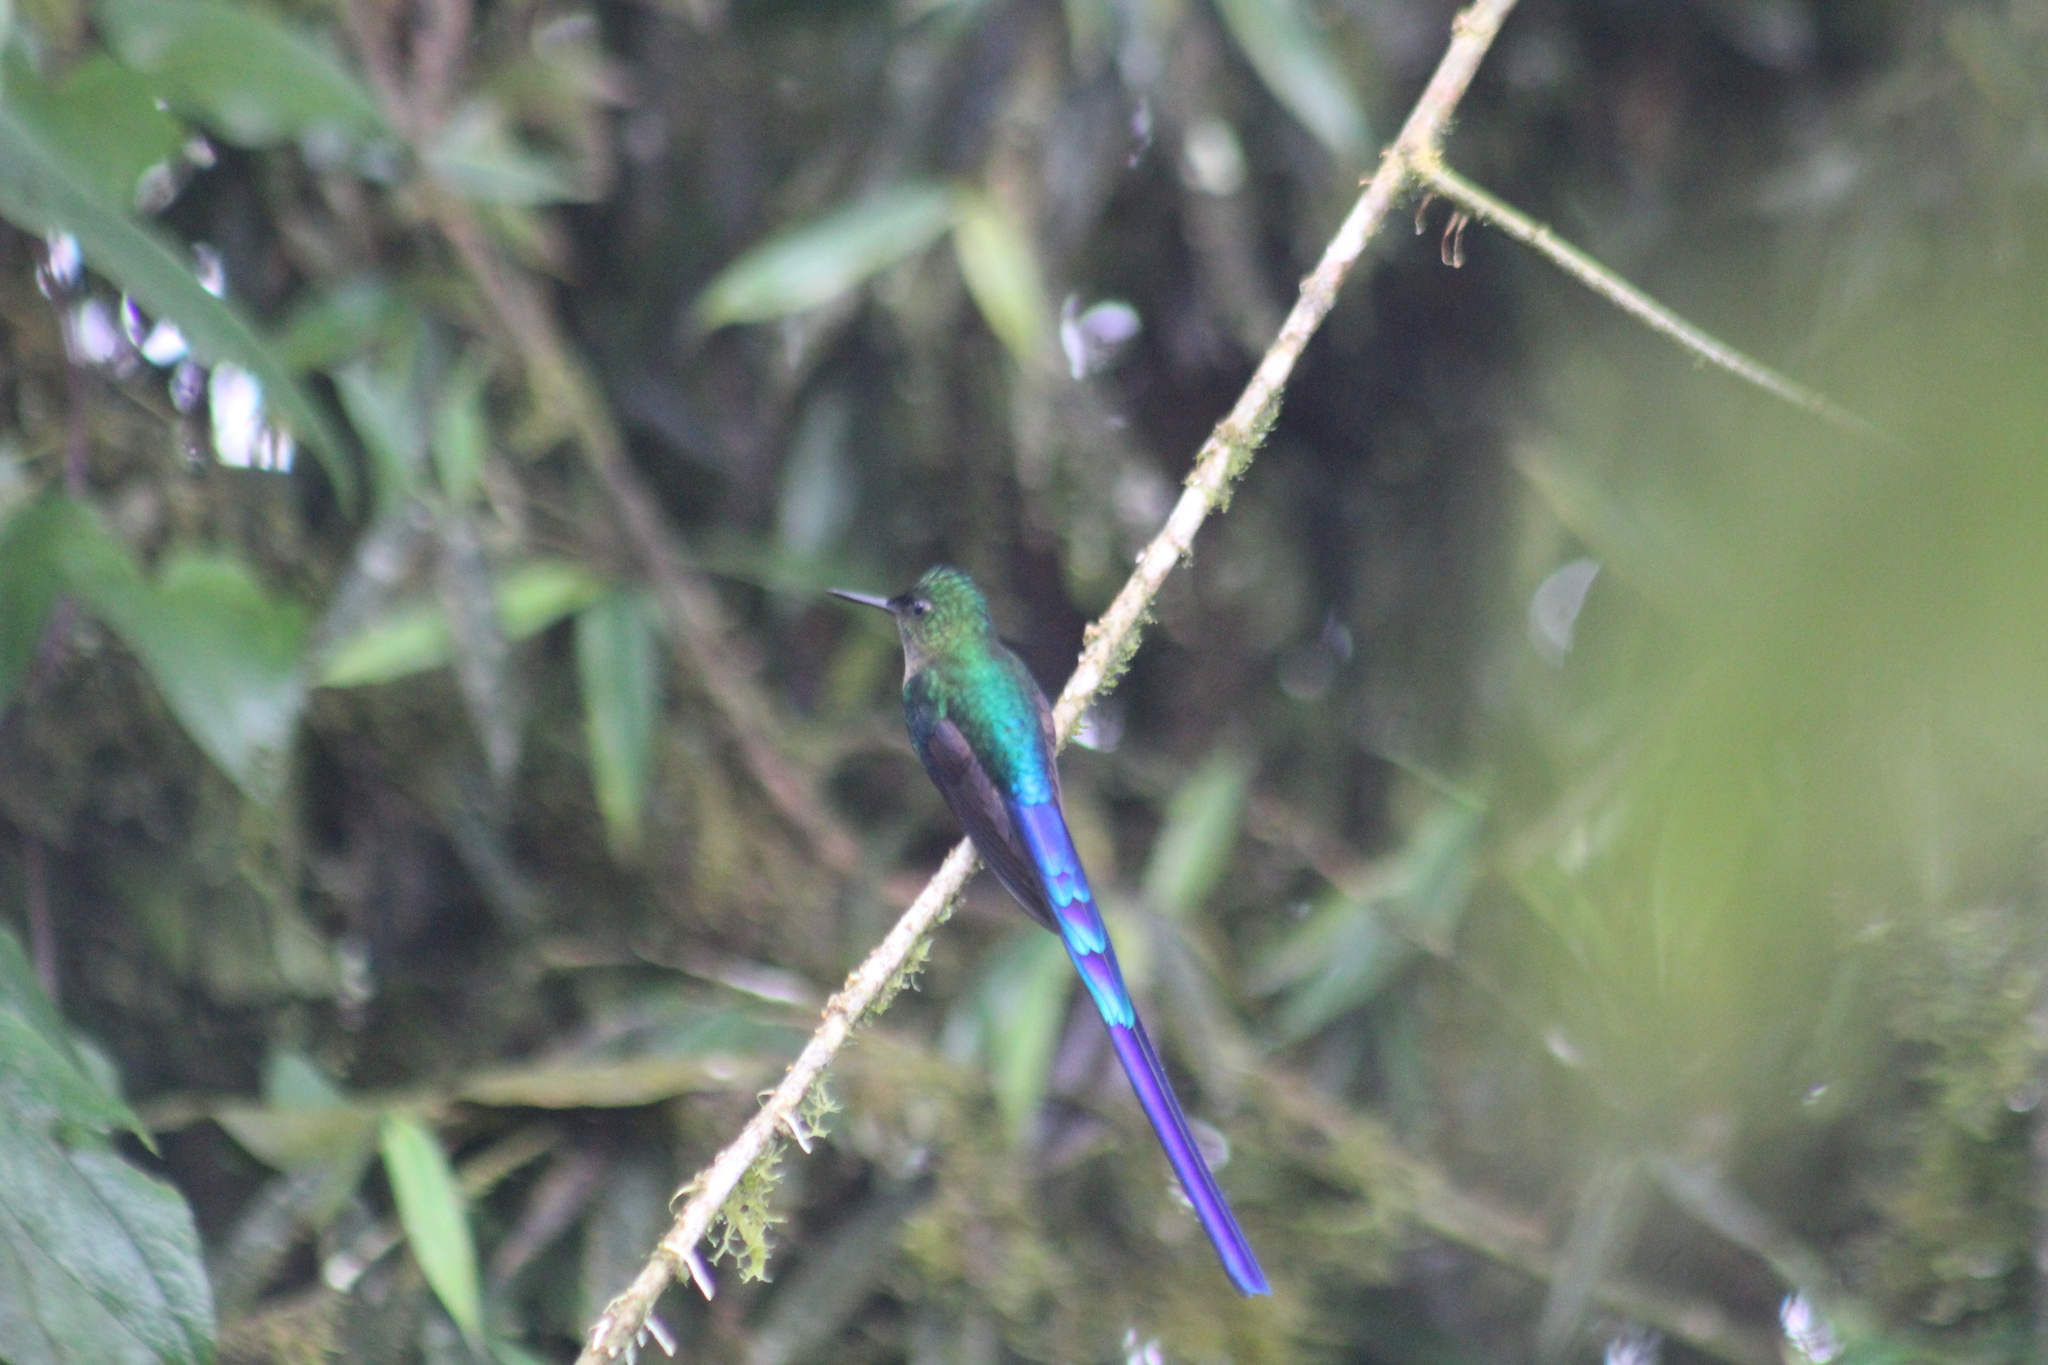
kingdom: Animalia
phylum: Chordata
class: Aves
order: Apodiformes
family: Trochilidae
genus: Aglaiocercus
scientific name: Aglaiocercus coelestis
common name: Violet-tailed sylph
